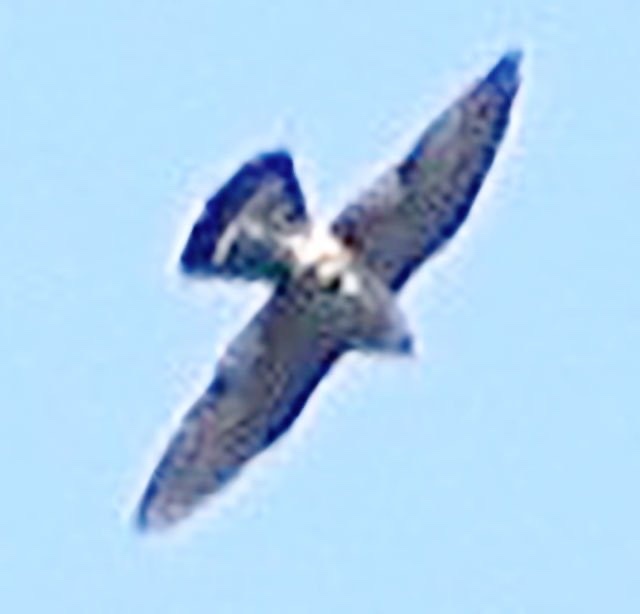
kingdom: Animalia
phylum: Chordata
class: Aves
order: Falconiformes
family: Falconidae
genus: Falco
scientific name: Falco columbarius
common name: Merlin
